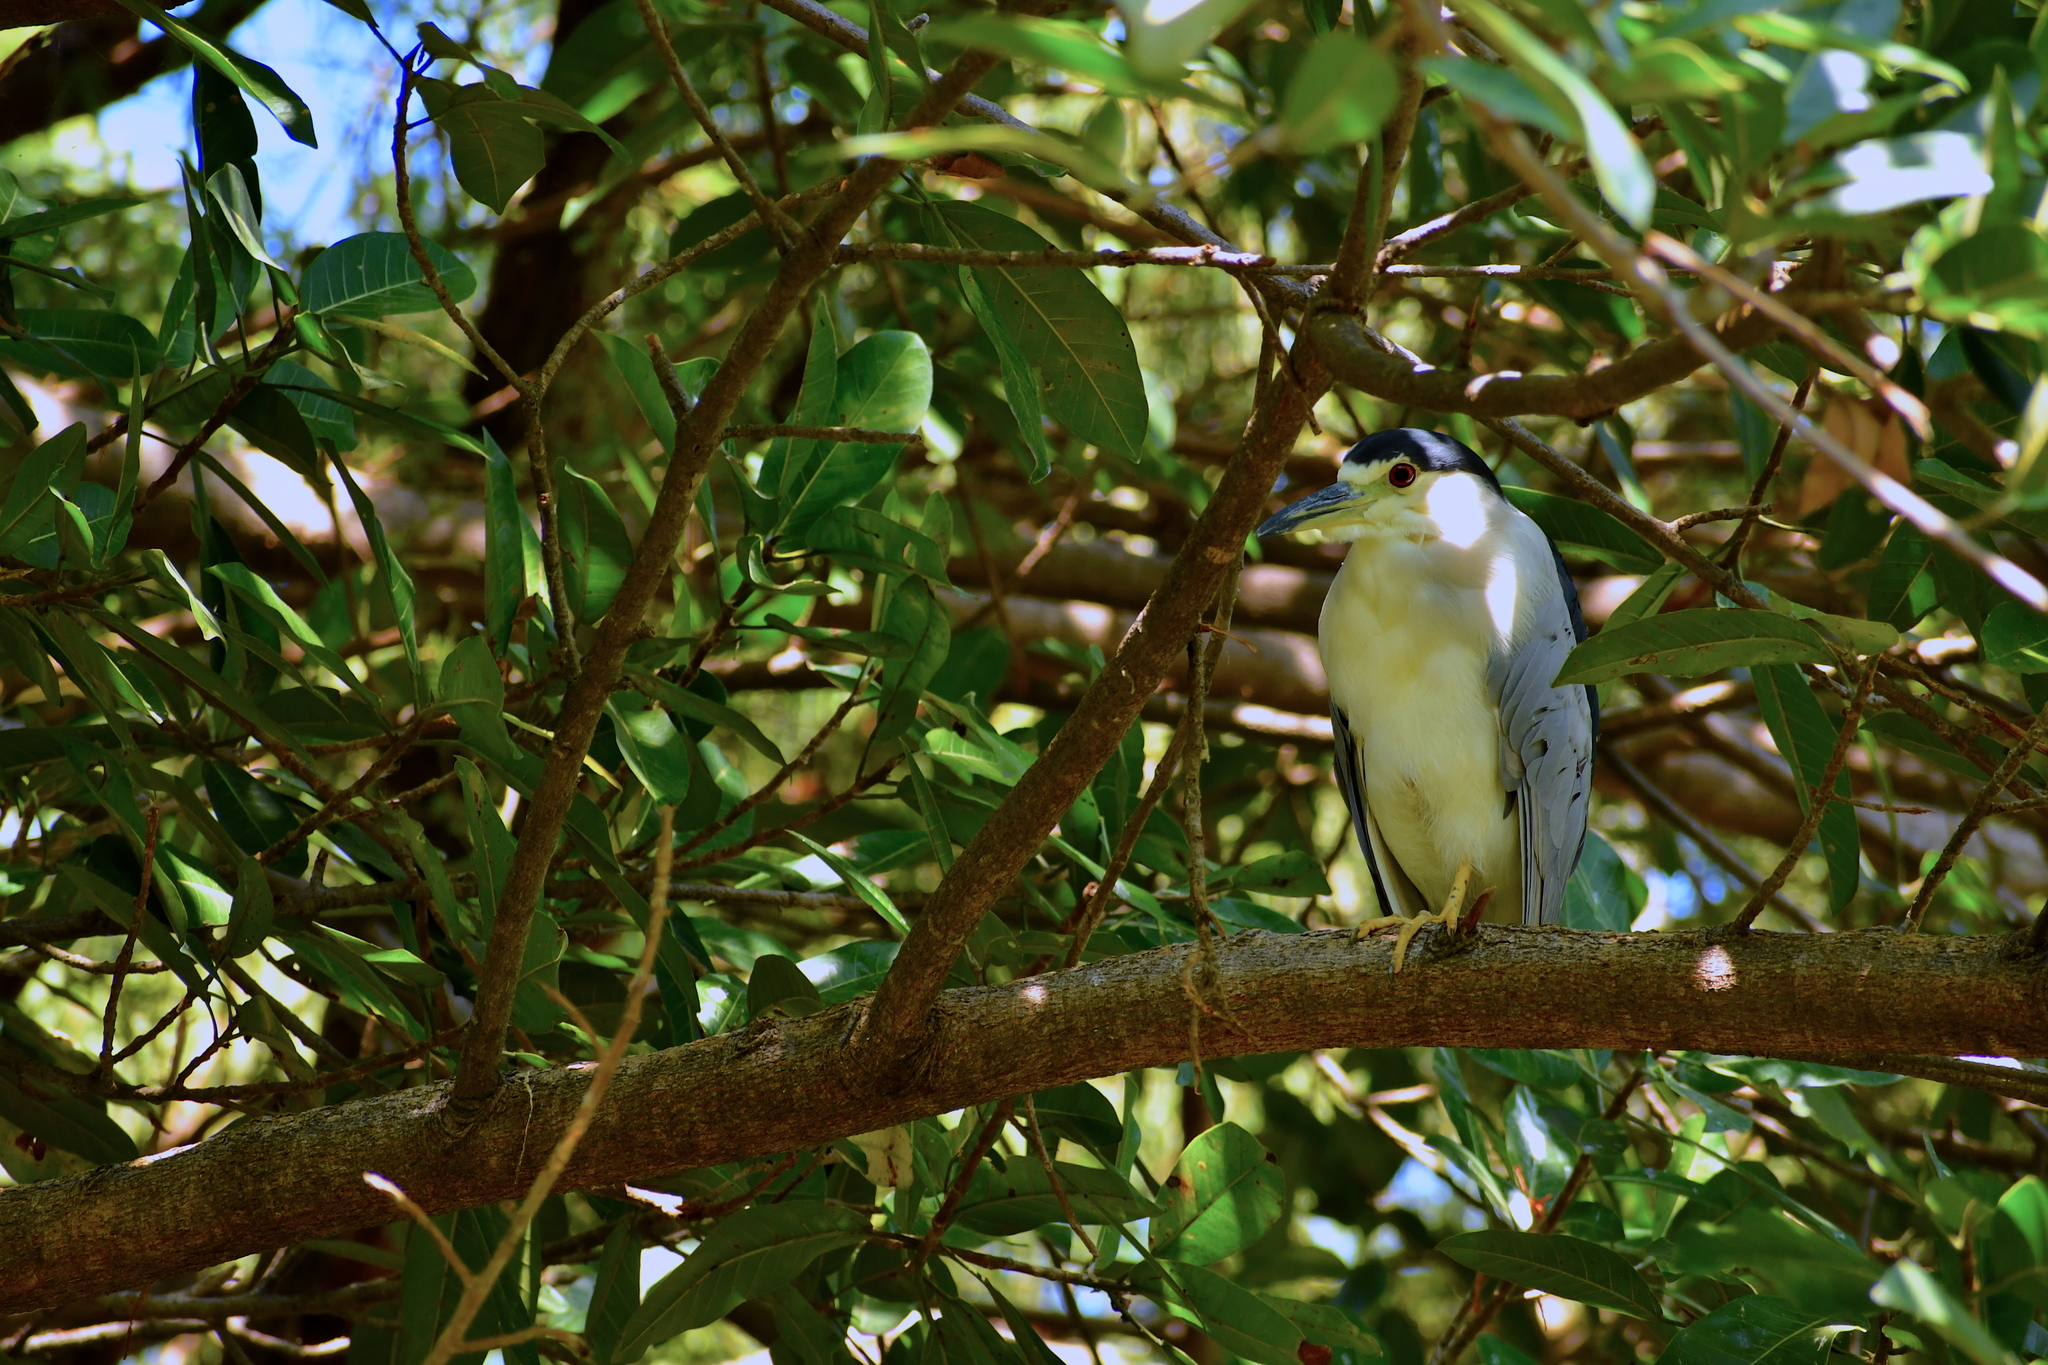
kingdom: Animalia
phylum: Chordata
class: Aves
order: Pelecaniformes
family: Ardeidae
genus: Nycticorax
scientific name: Nycticorax nycticorax
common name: Black-crowned night heron
